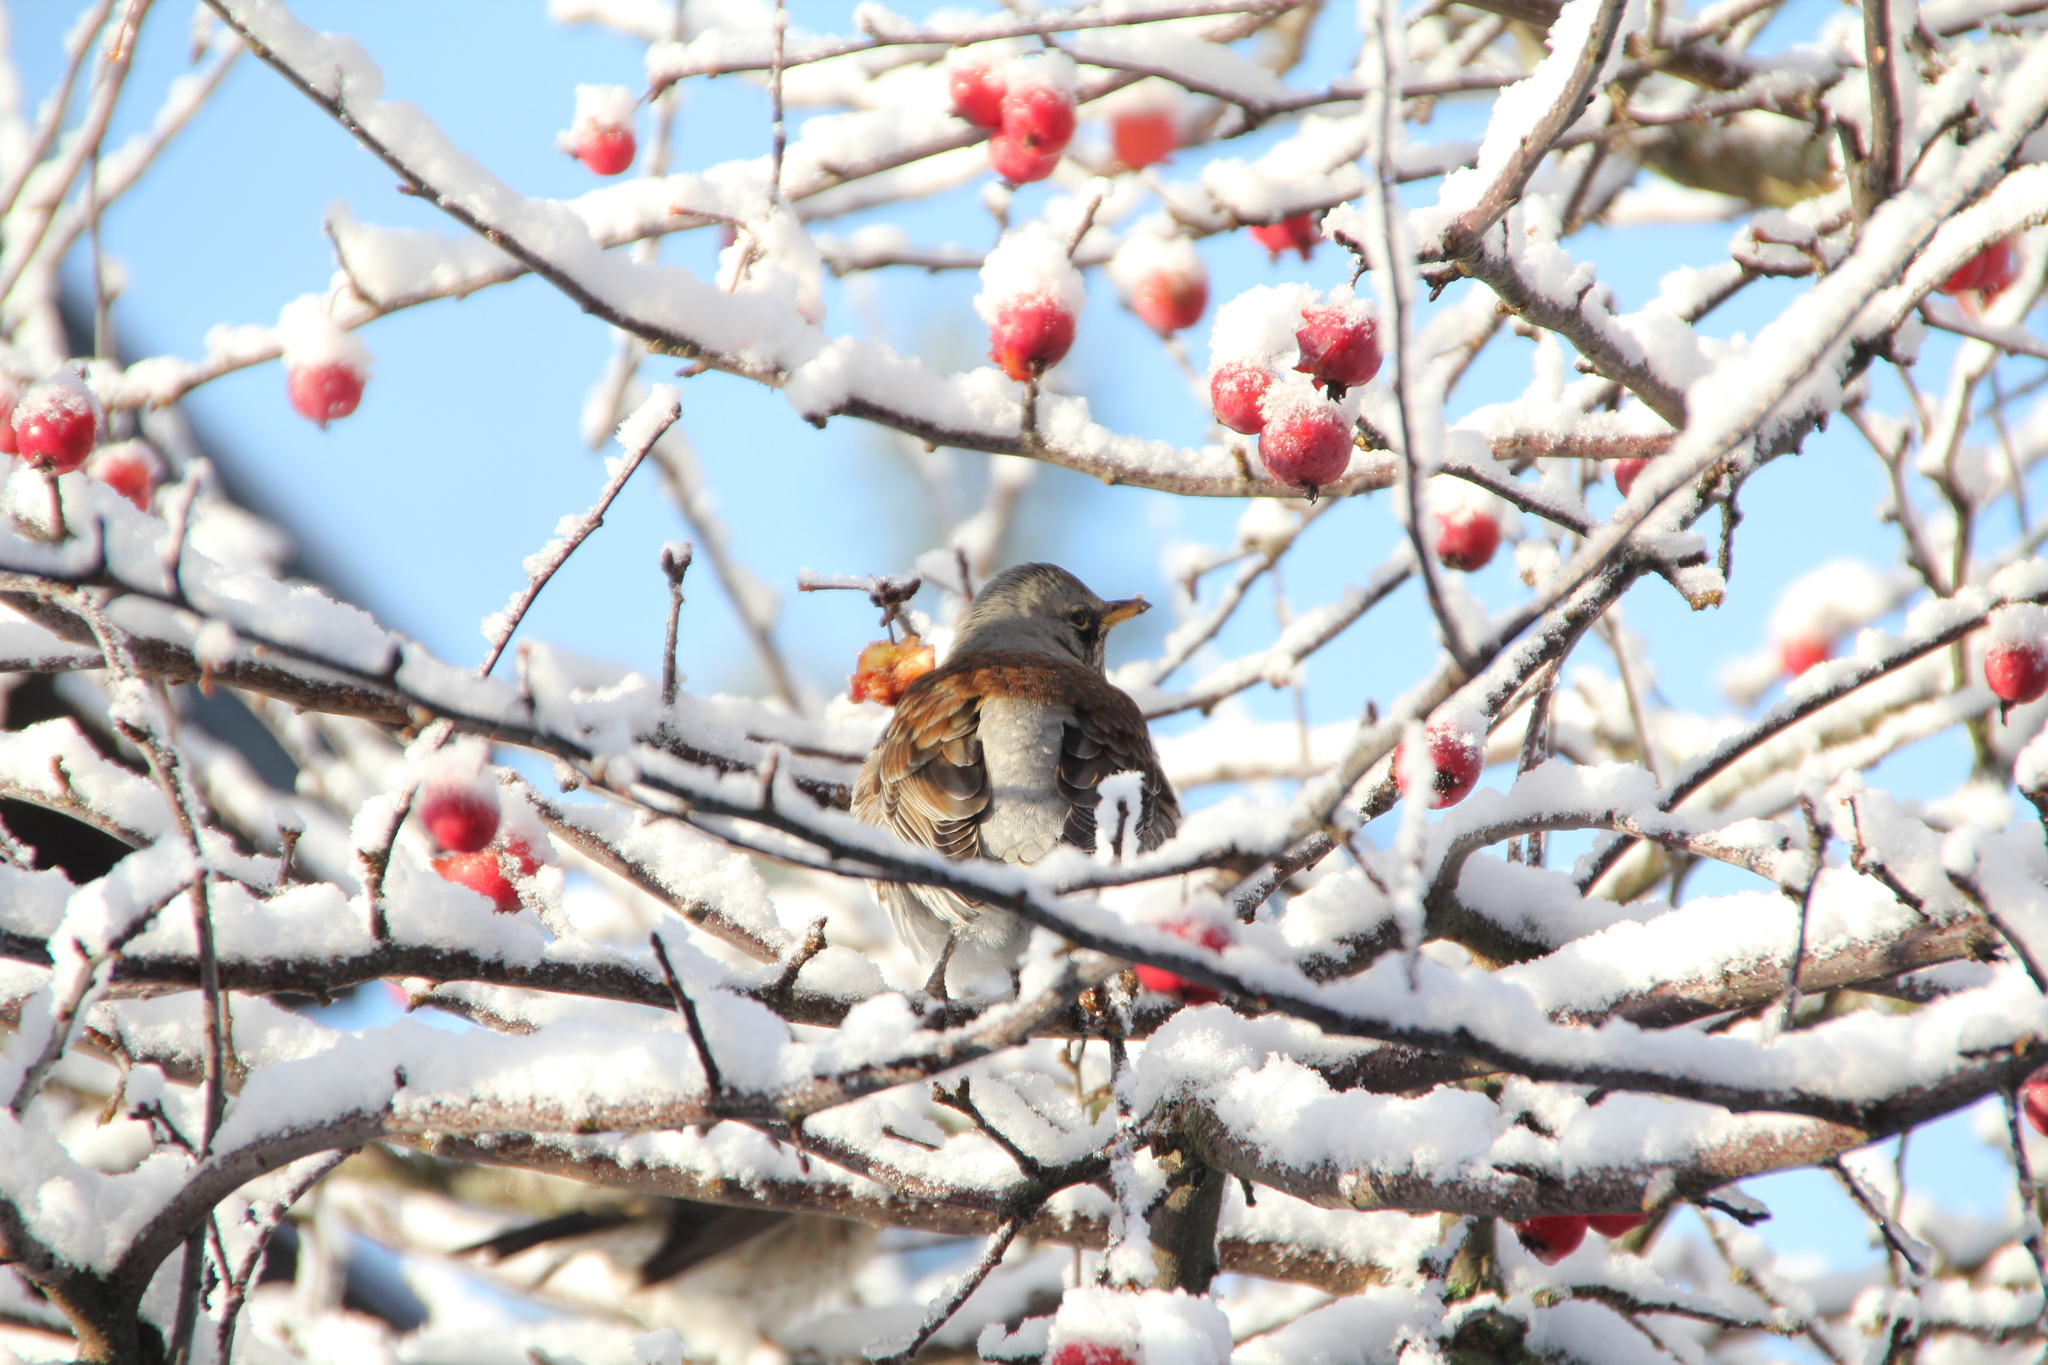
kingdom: Animalia
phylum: Chordata
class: Aves
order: Passeriformes
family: Turdidae
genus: Turdus
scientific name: Turdus pilaris
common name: Fieldfare
